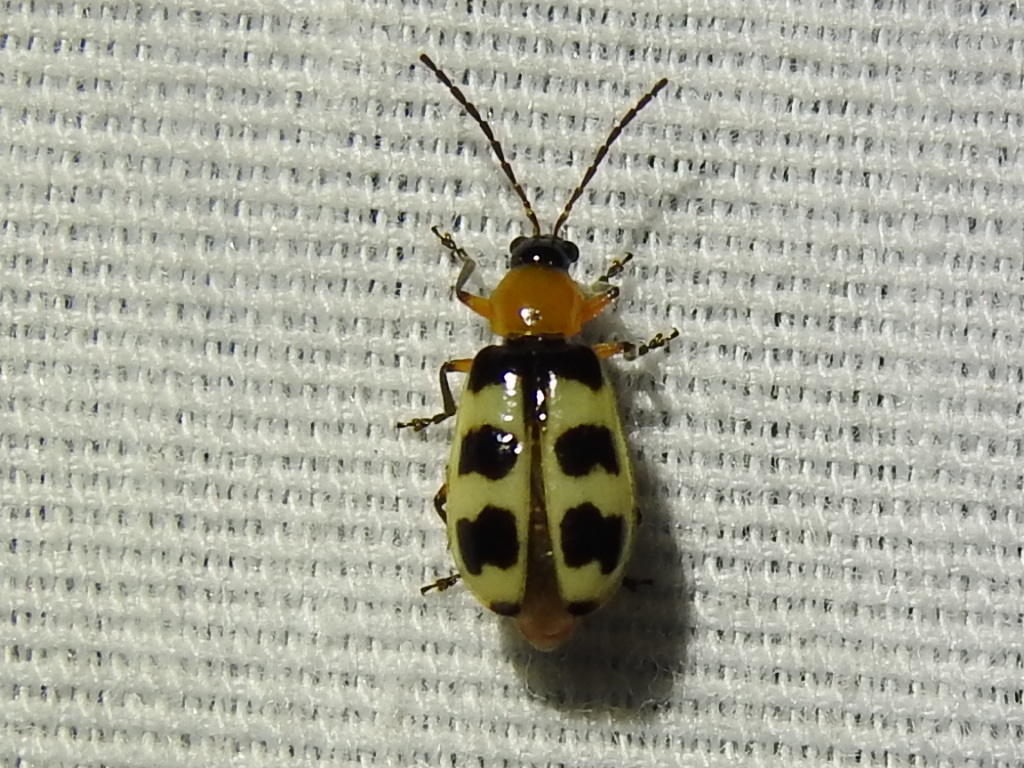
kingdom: Animalia
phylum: Arthropoda
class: Insecta
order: Coleoptera
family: Chrysomelidae
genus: Paranapiacaba
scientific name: Paranapiacaba tricincta
